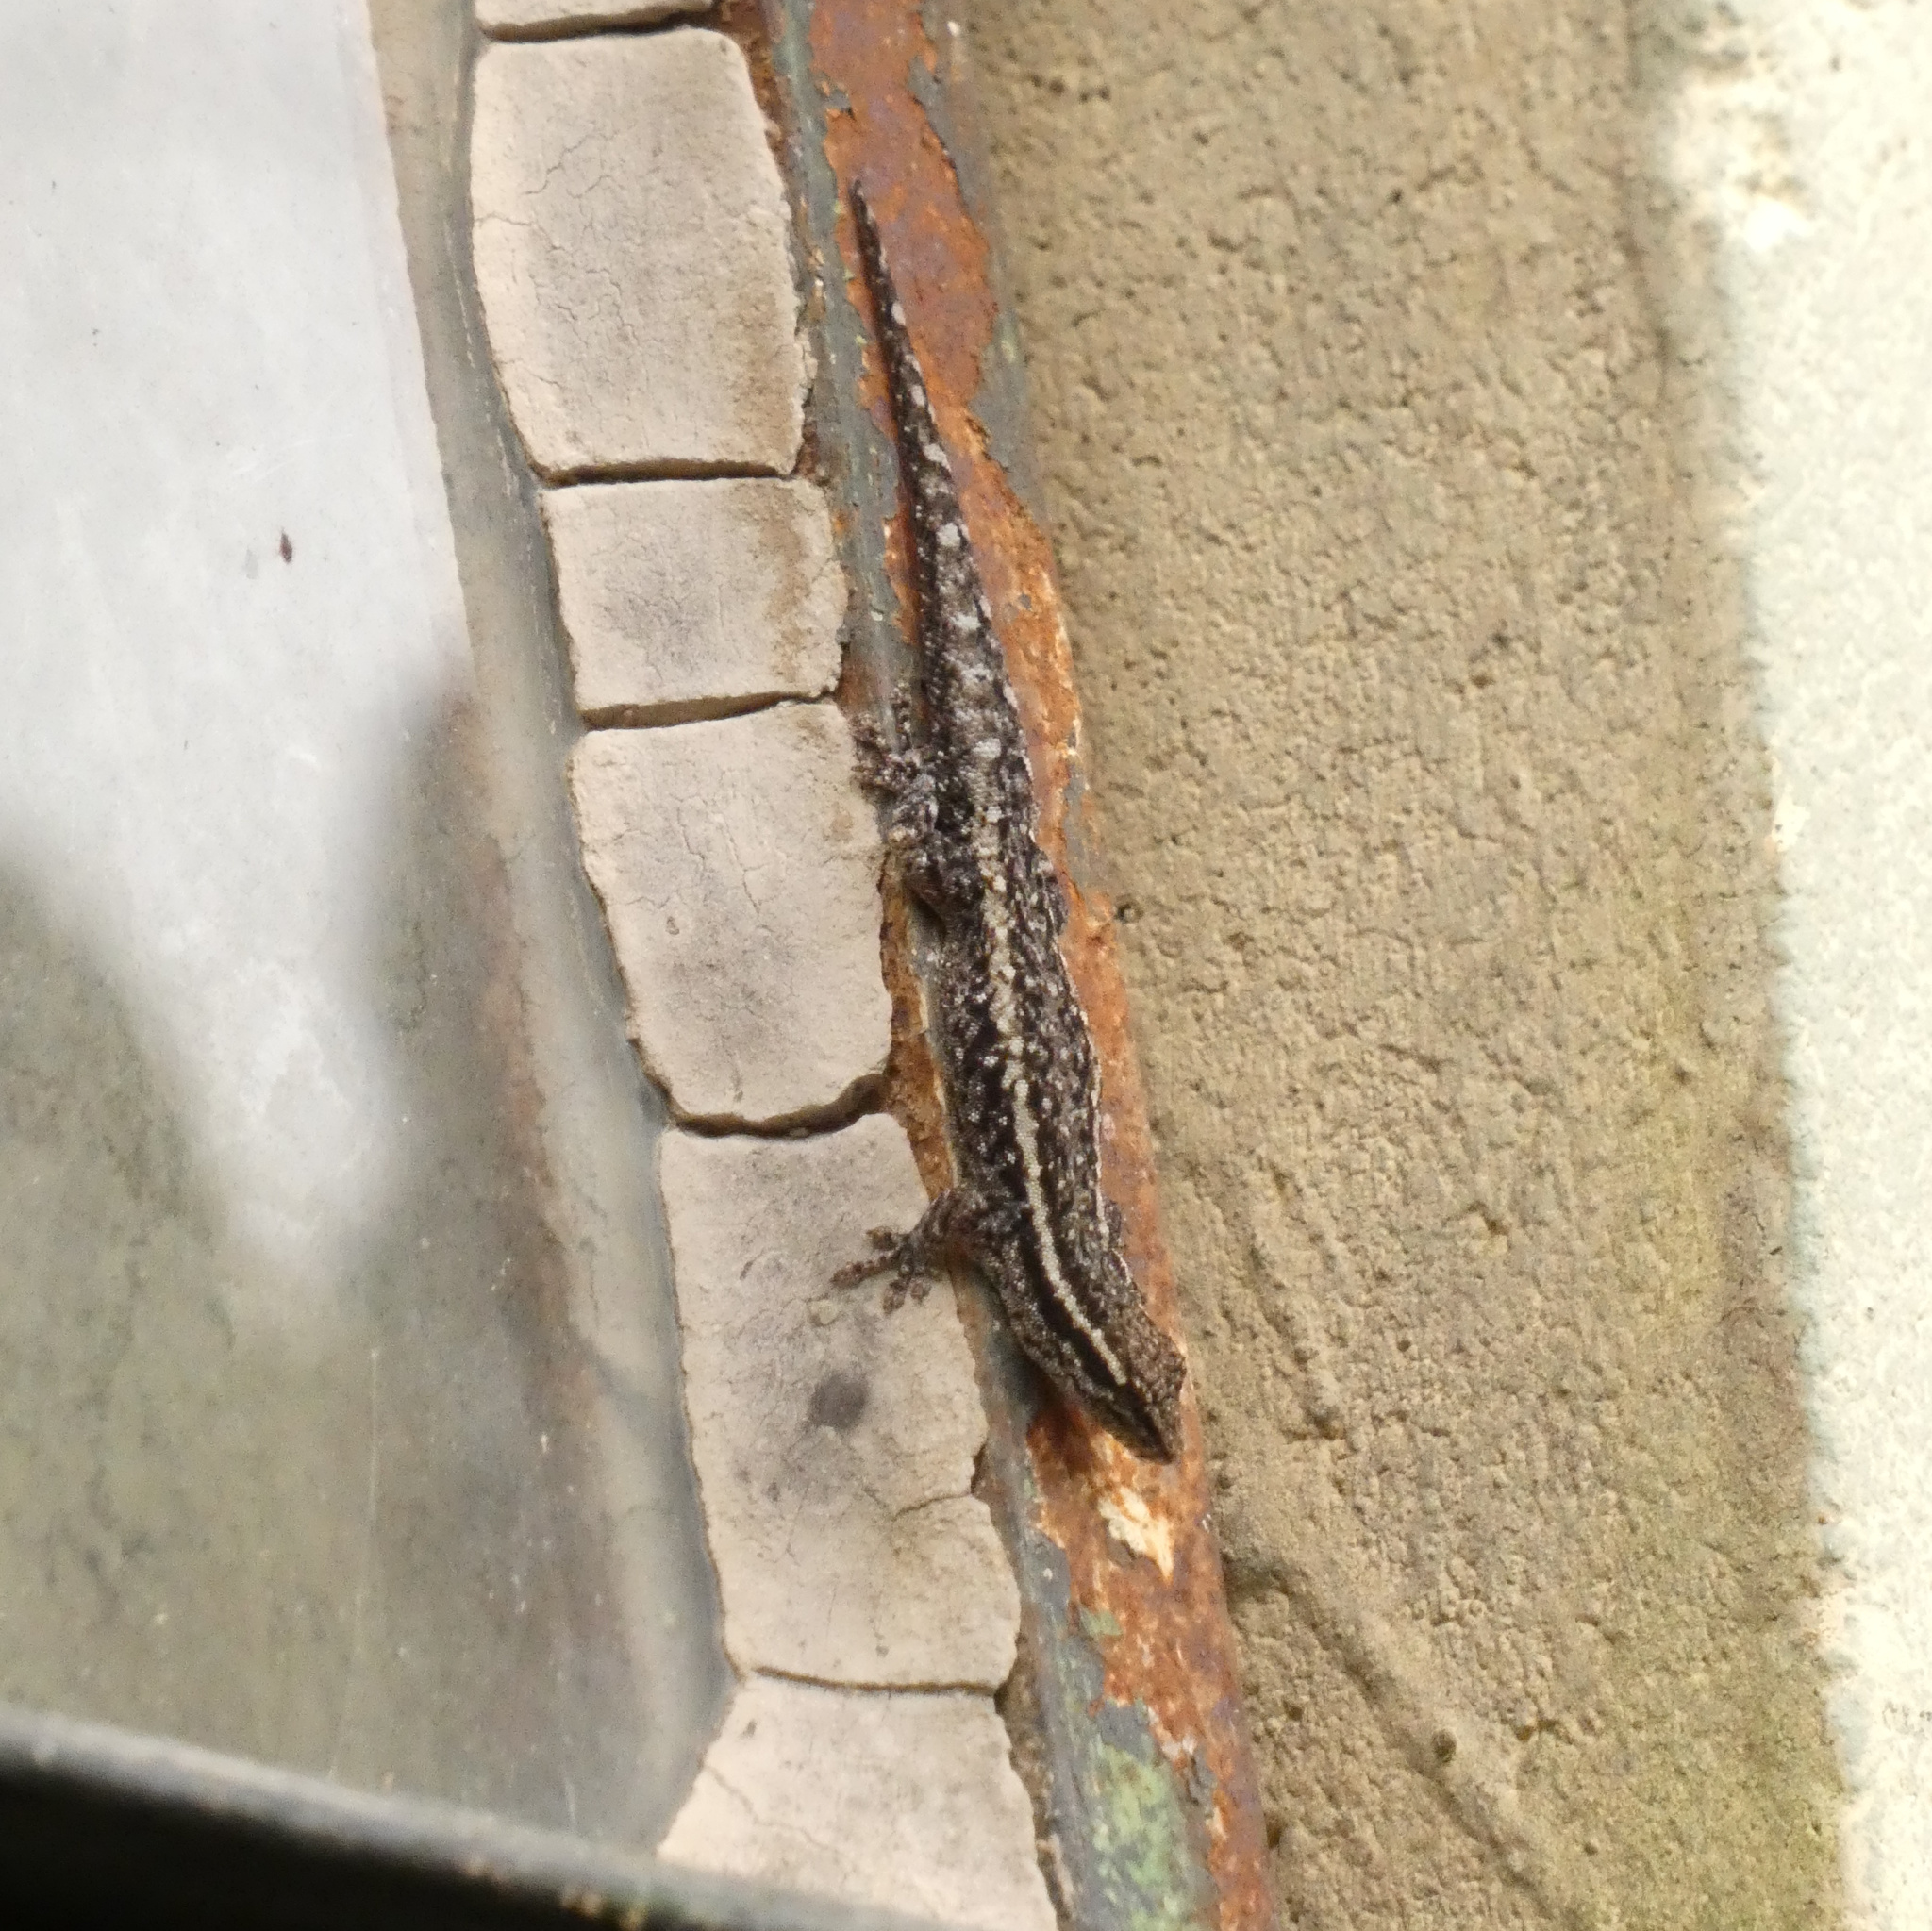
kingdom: Animalia
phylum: Chordata
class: Squamata
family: Gekkonidae
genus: Lygodactylus
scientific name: Lygodactylus capensis
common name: Cape dwarf gecko
